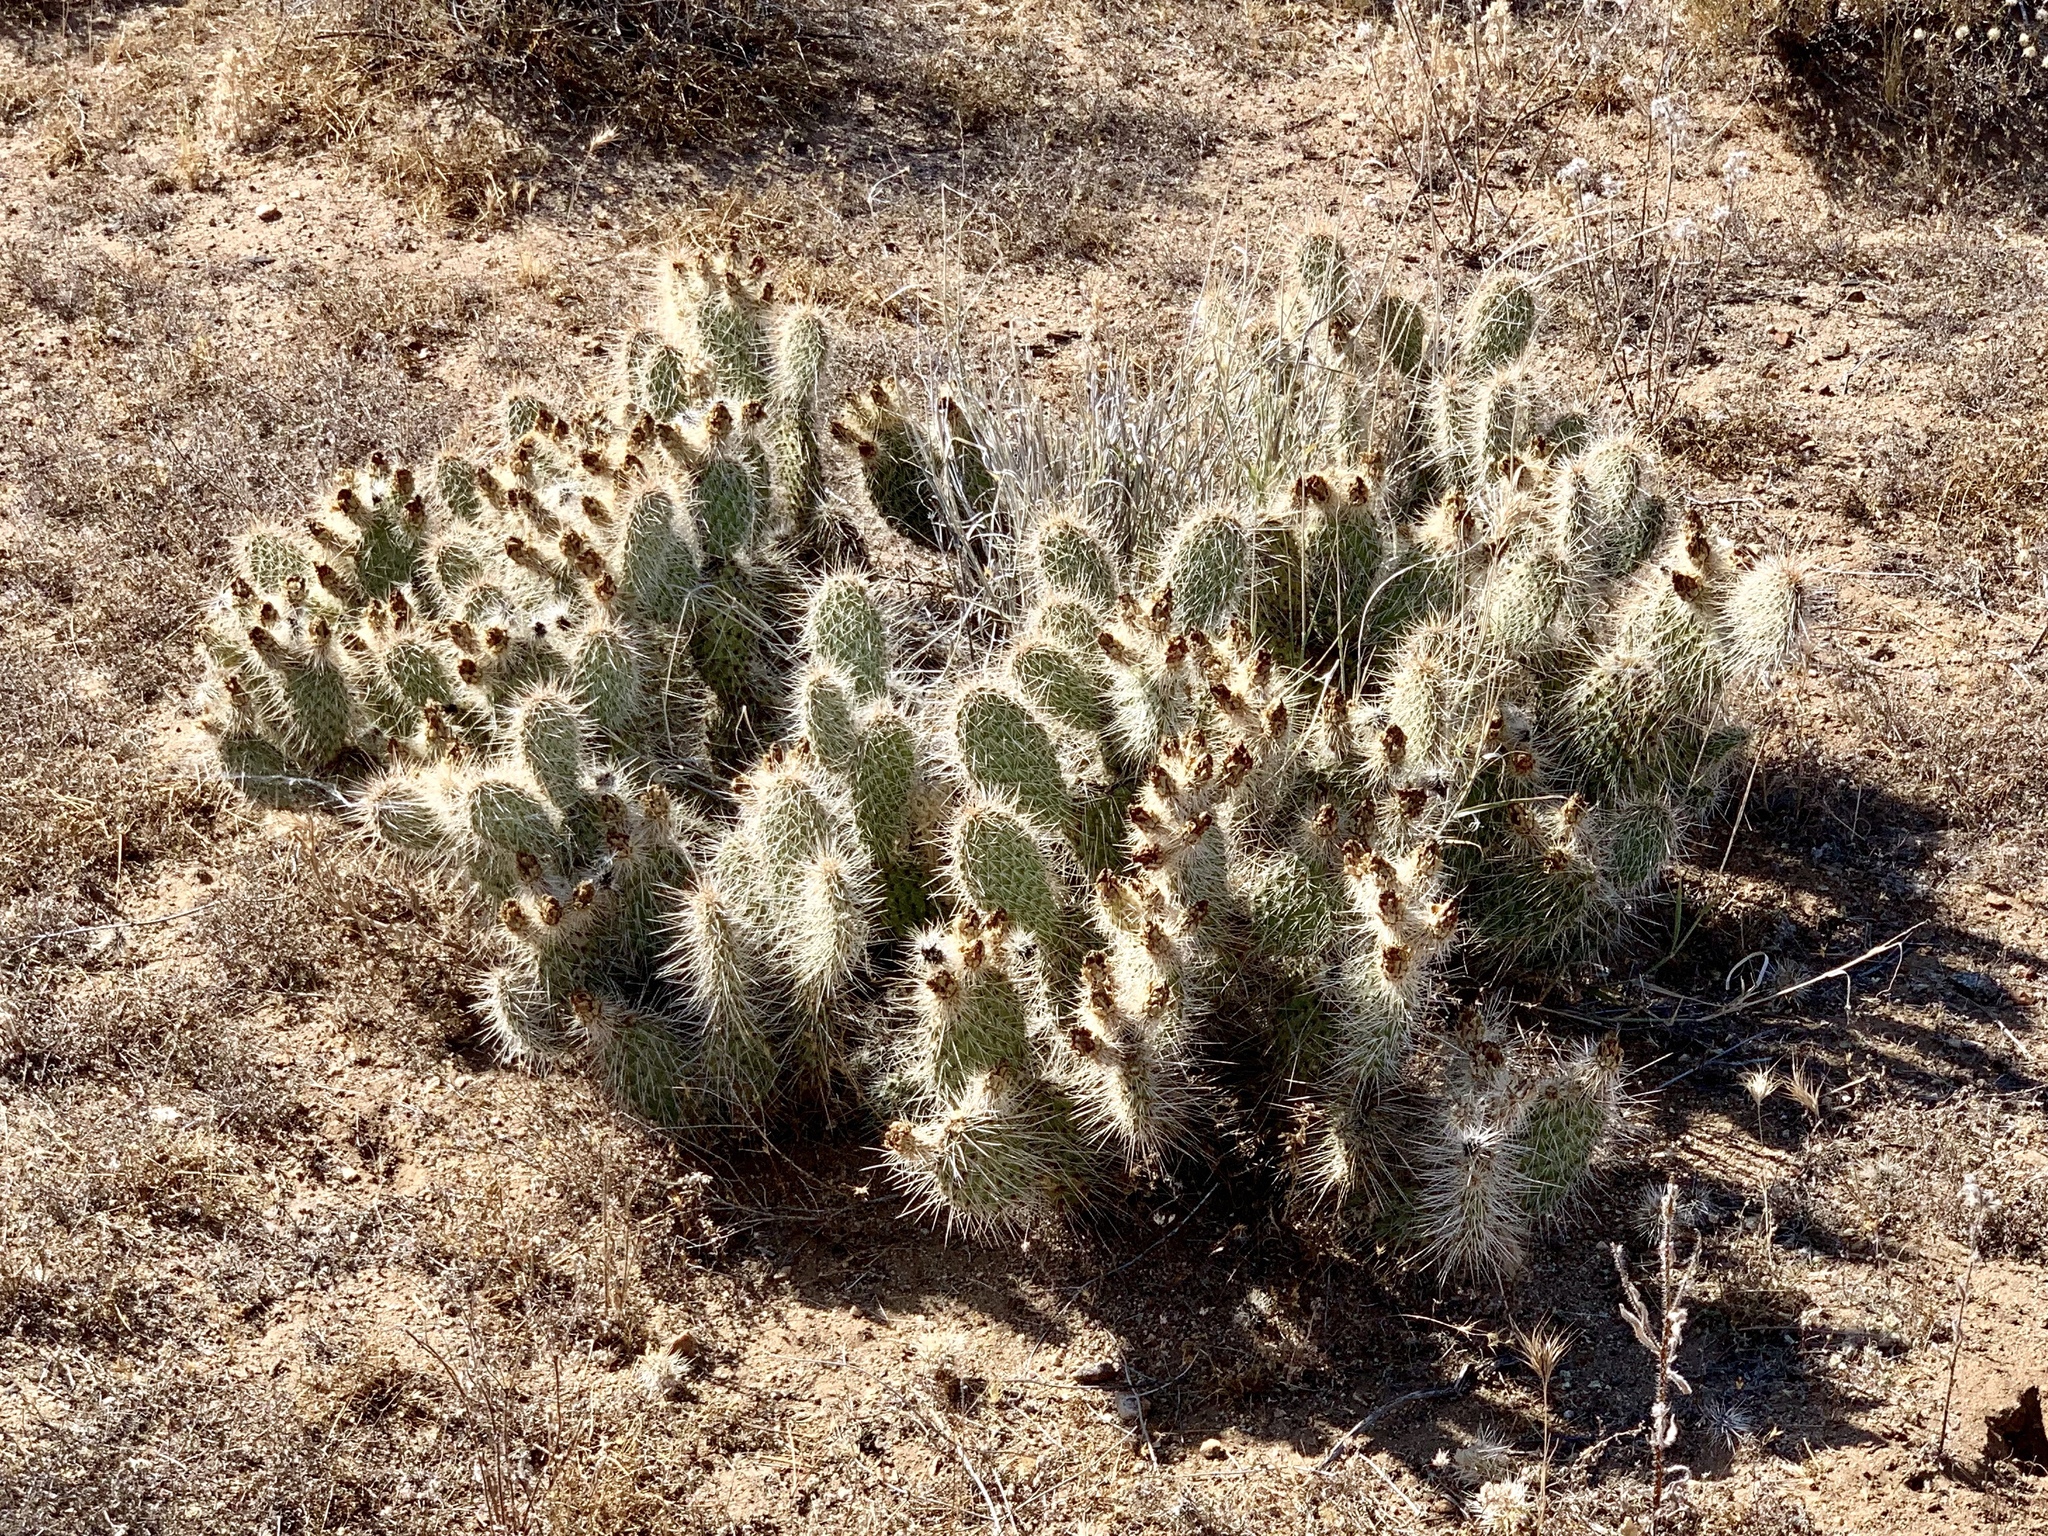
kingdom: Plantae
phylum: Tracheophyta
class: Magnoliopsida
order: Caryophyllales
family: Cactaceae
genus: Opuntia
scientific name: Opuntia polyacantha
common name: Plains prickly-pear
